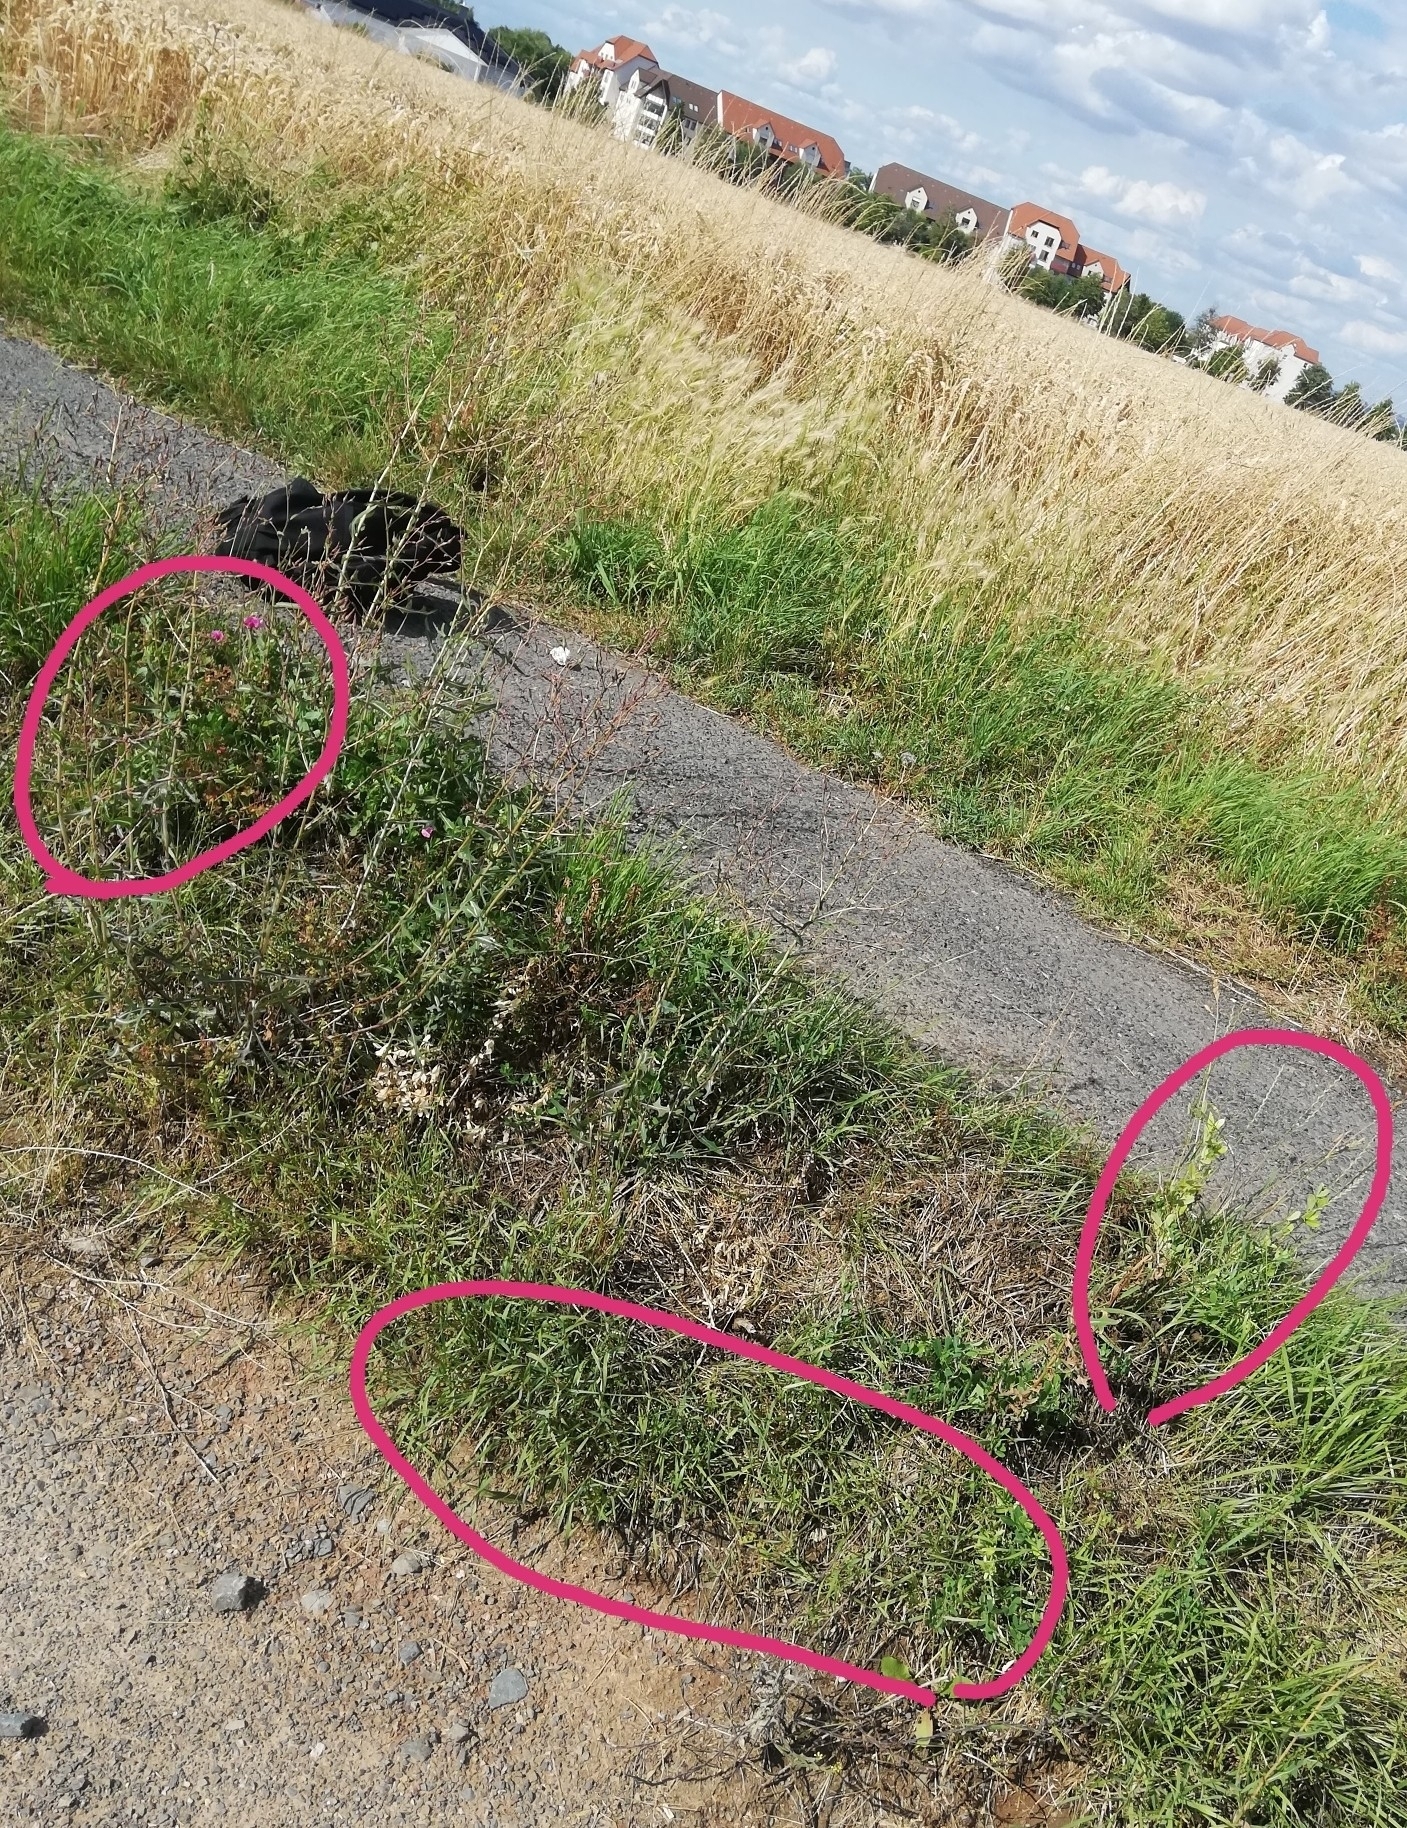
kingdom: Plantae
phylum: Tracheophyta
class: Magnoliopsida
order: Fabales
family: Fabaceae
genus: Lathyrus
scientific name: Lathyrus tuberosus
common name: Tuberous pea
